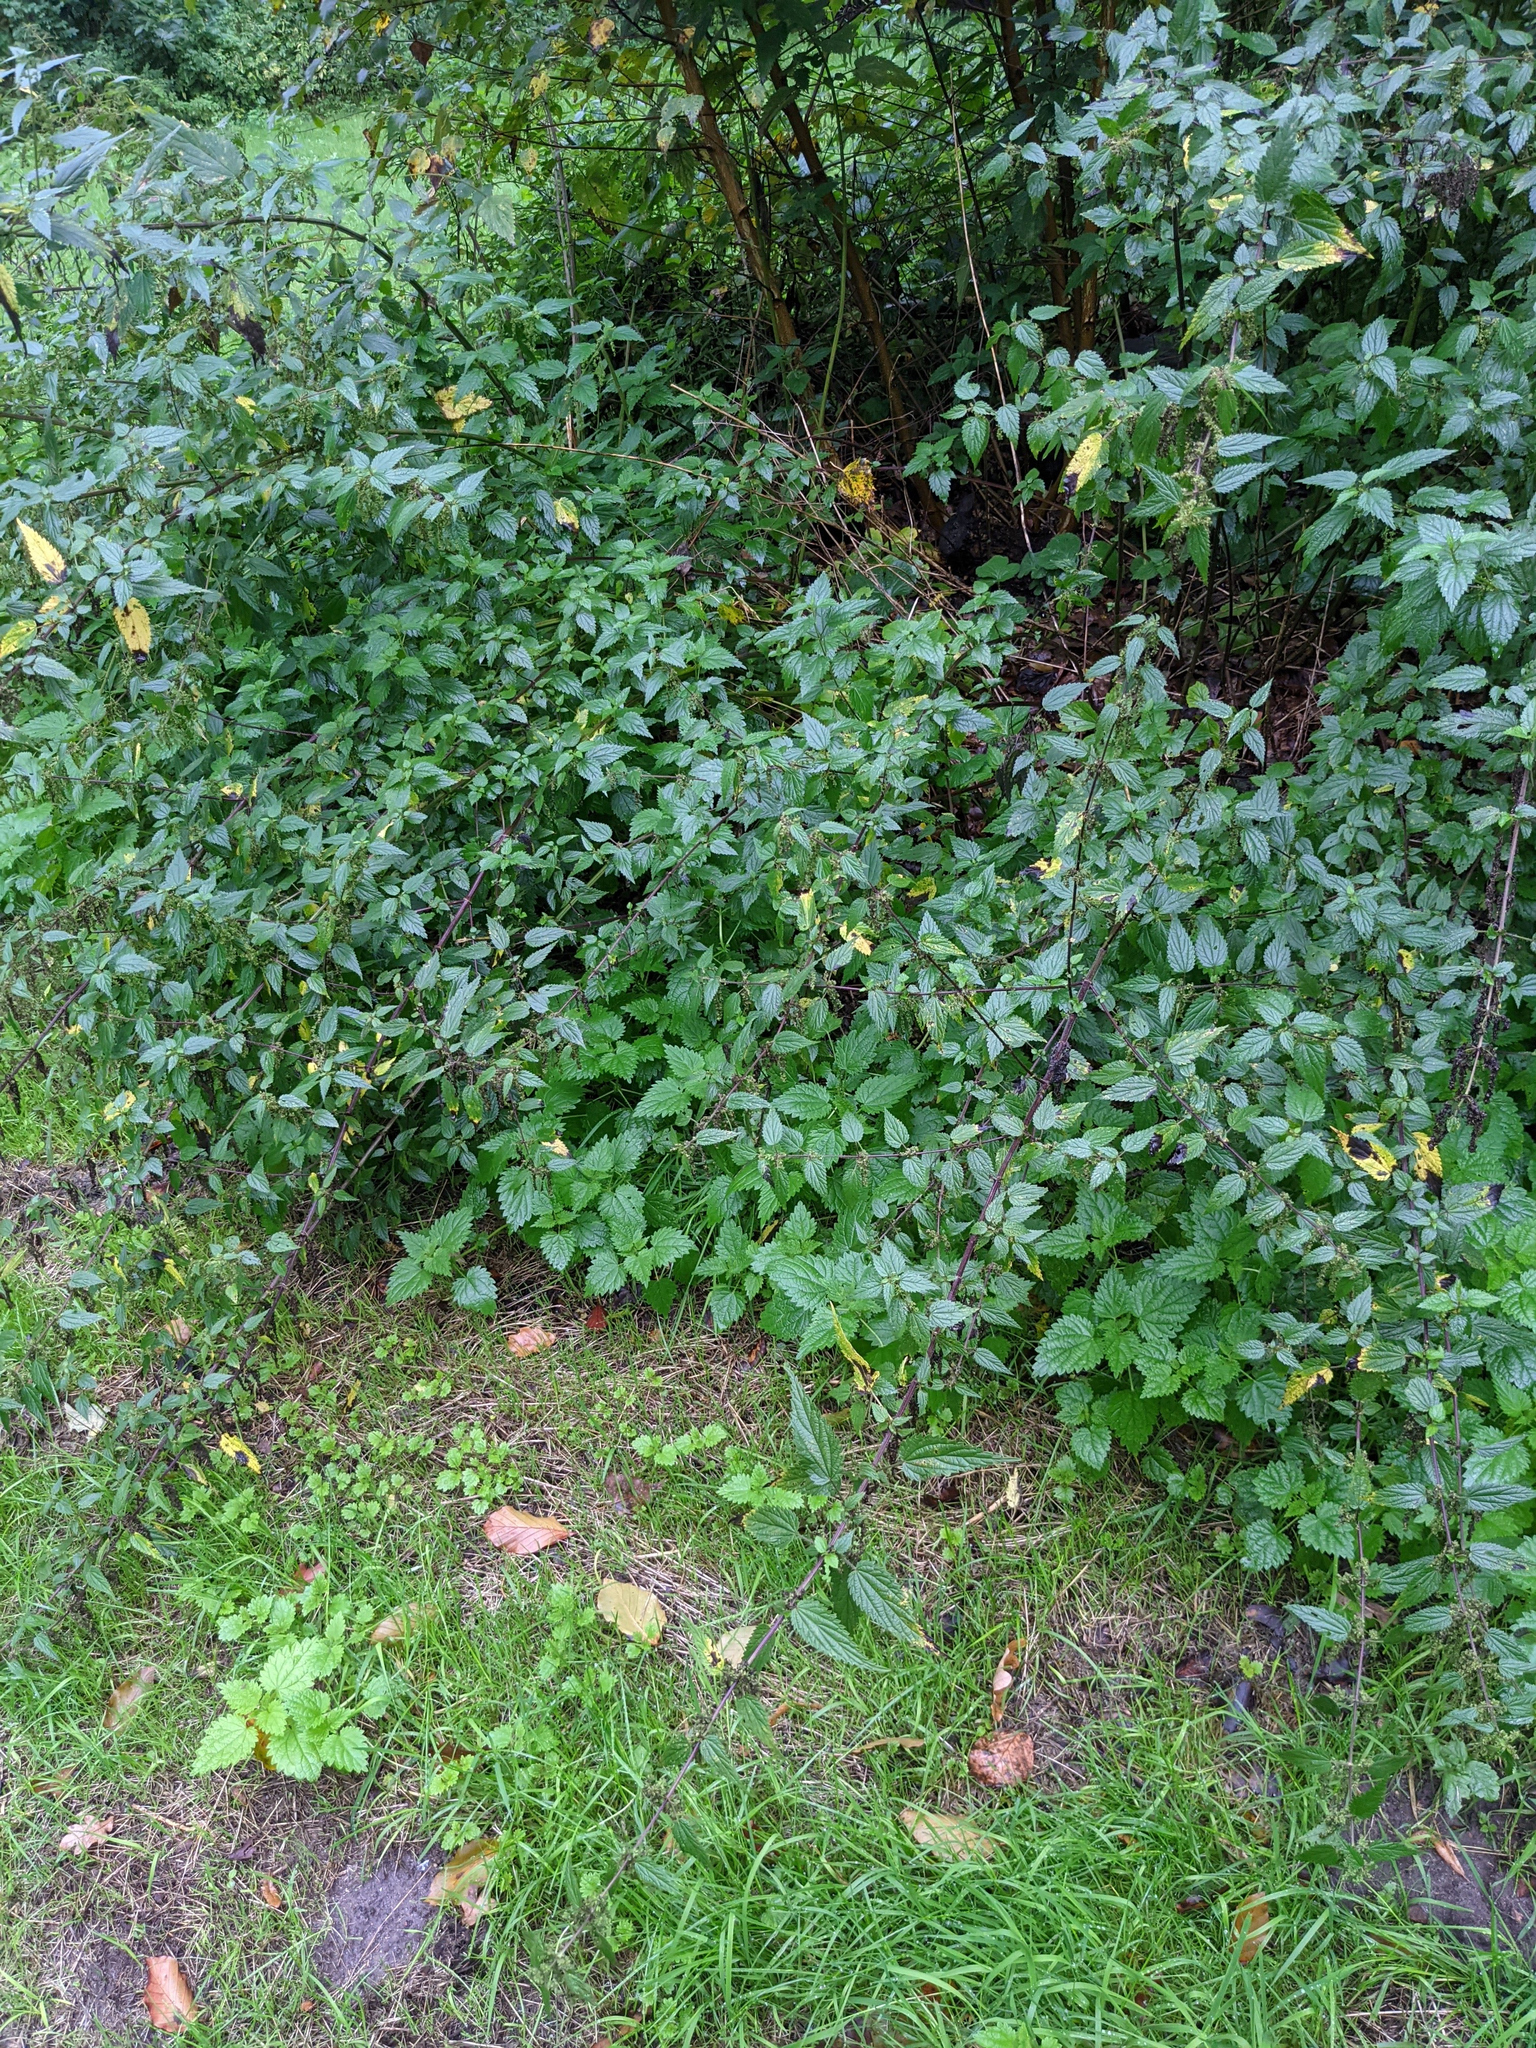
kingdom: Plantae
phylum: Tracheophyta
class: Magnoliopsida
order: Rosales
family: Urticaceae
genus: Urtica
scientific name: Urtica dioica
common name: Common nettle
